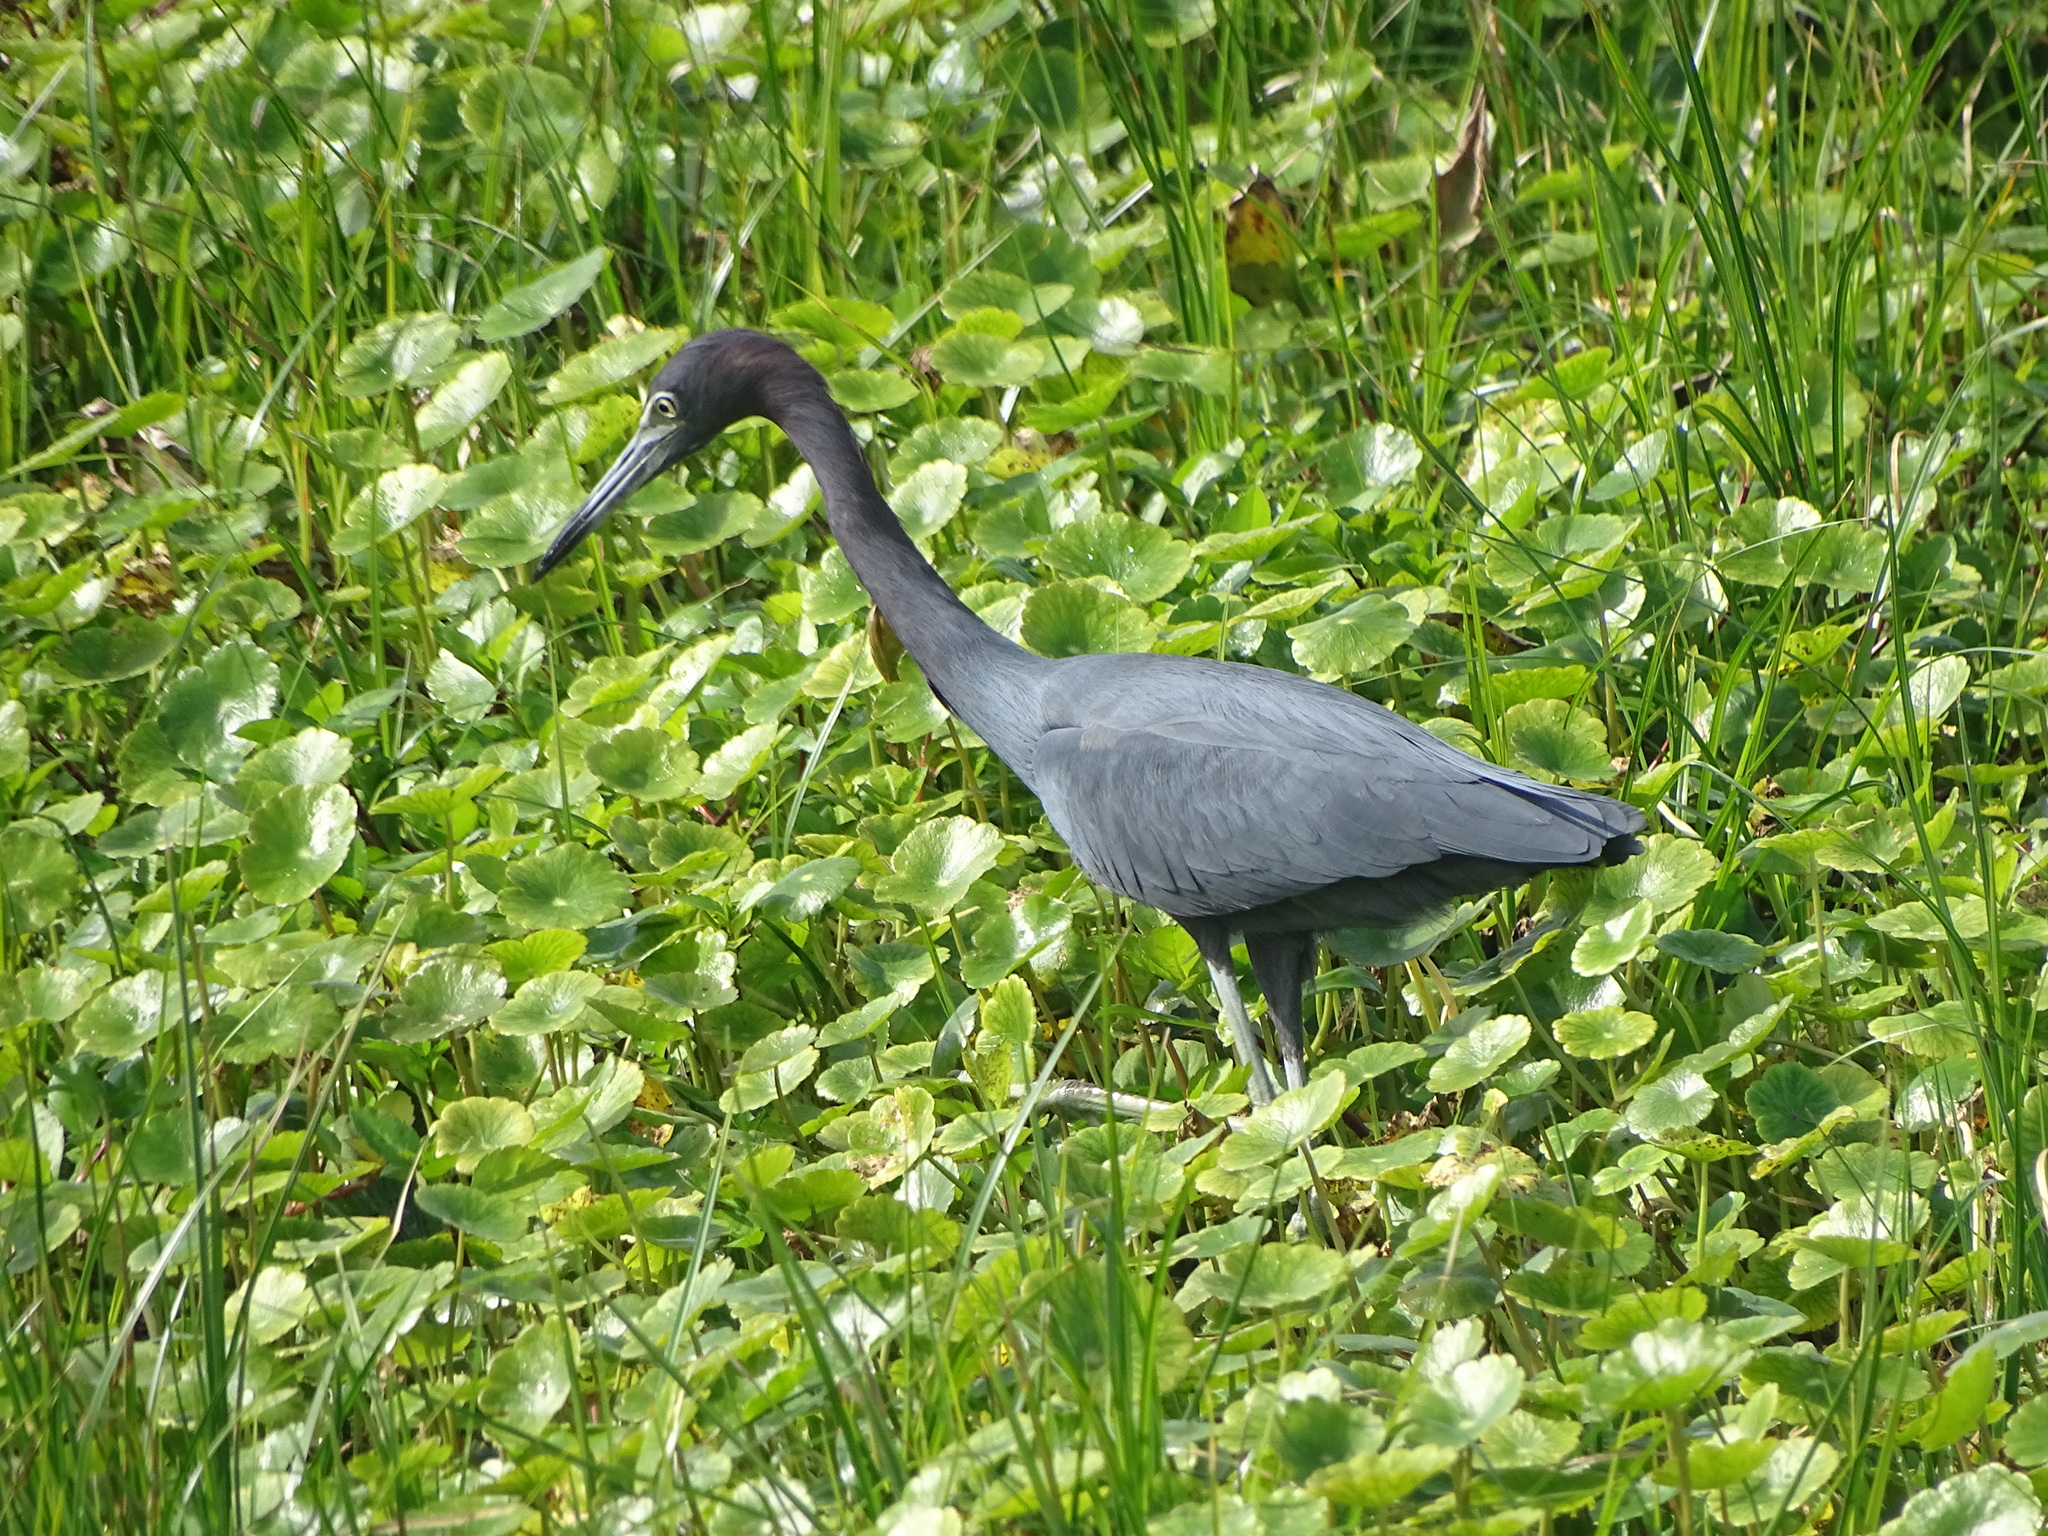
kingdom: Animalia
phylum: Chordata
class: Aves
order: Pelecaniformes
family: Ardeidae
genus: Egretta
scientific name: Egretta caerulea
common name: Little blue heron
